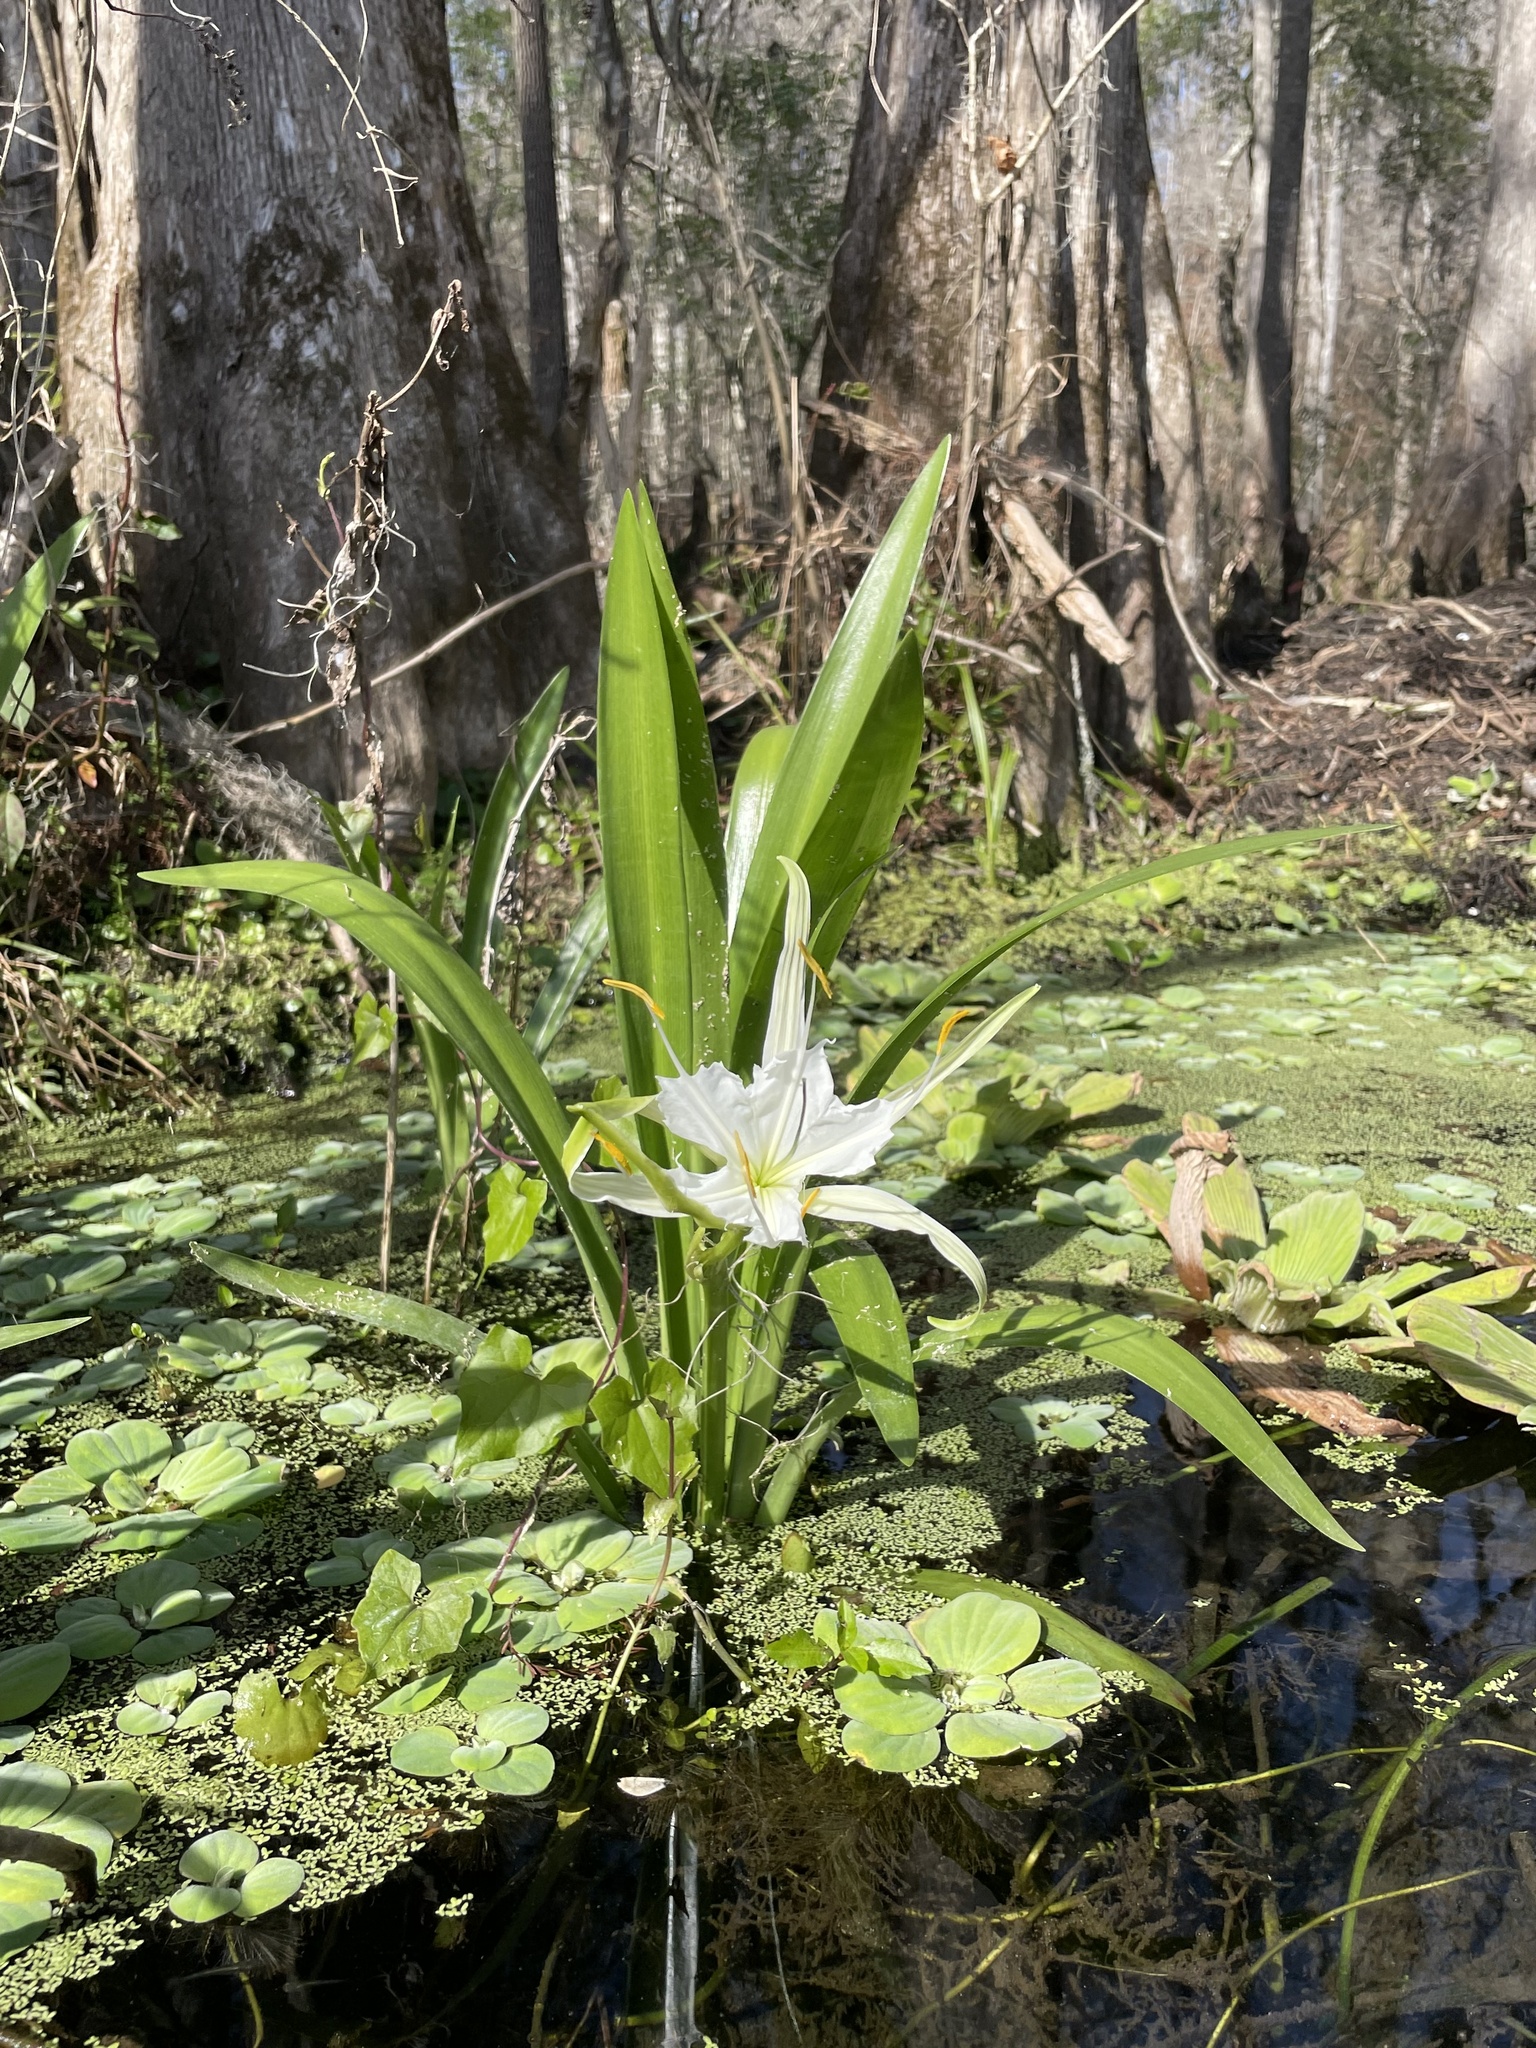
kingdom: Plantae
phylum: Tracheophyta
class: Liliopsida
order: Asparagales
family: Amaryllidaceae
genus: Hymenocallis
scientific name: Hymenocallis rotata
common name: Spring-run spider-lily
